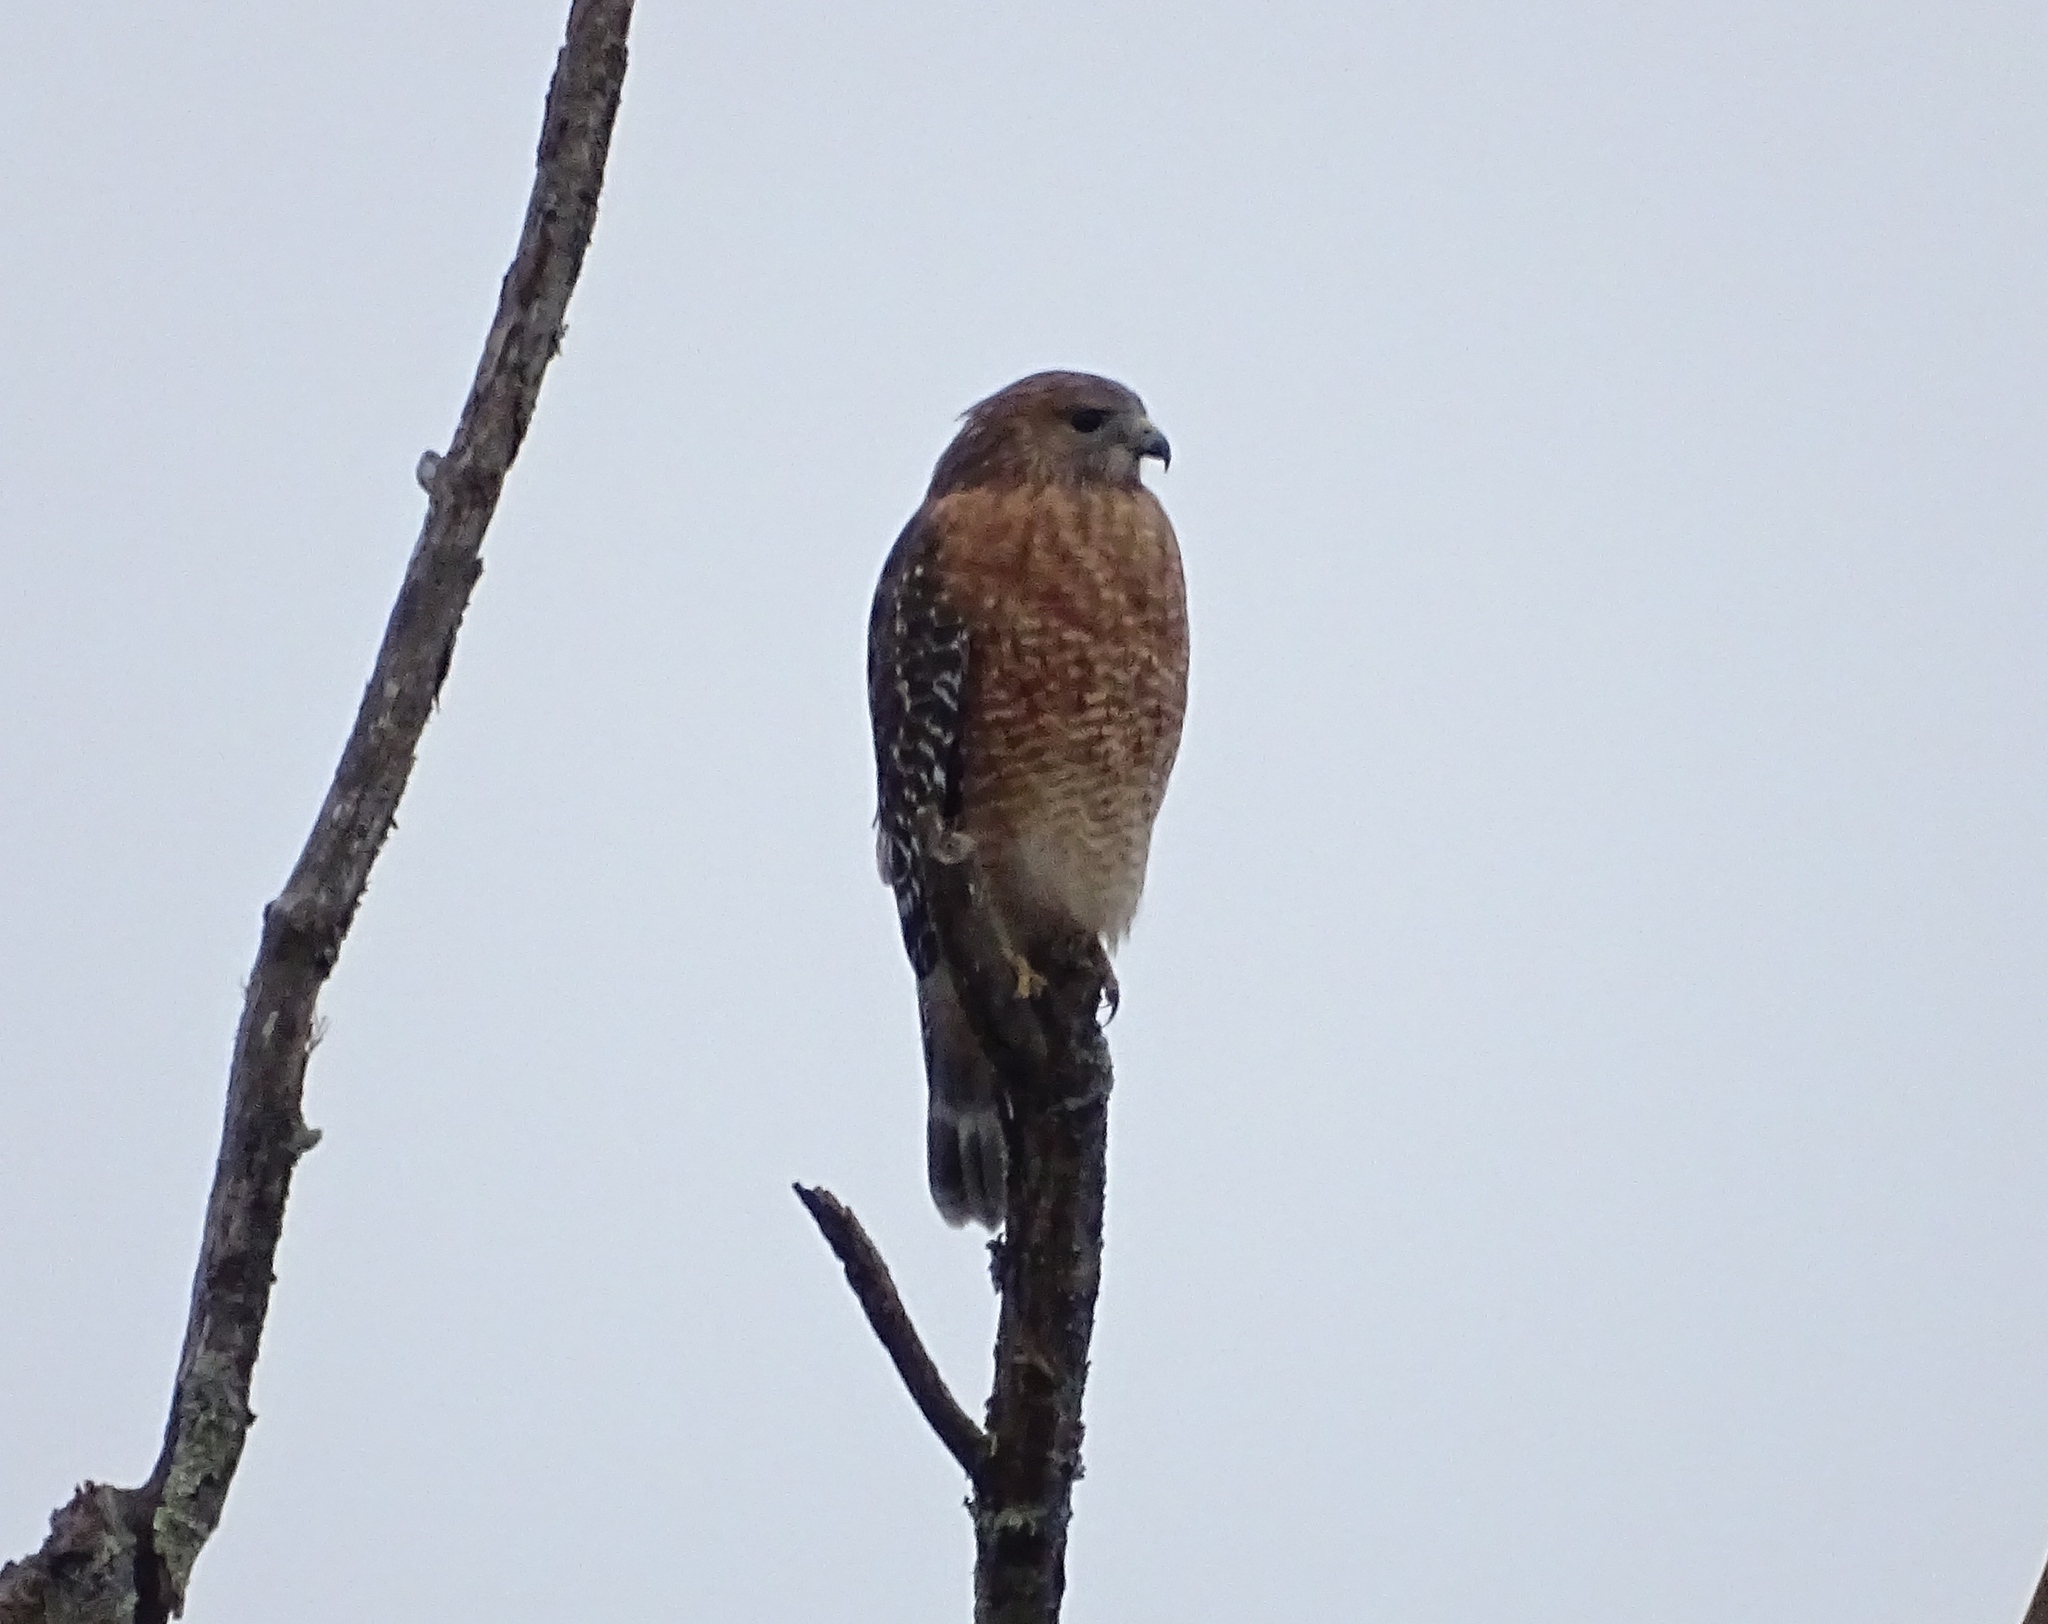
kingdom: Animalia
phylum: Chordata
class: Aves
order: Accipitriformes
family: Accipitridae
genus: Buteo
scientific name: Buteo lineatus
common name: Red-shouldered hawk
